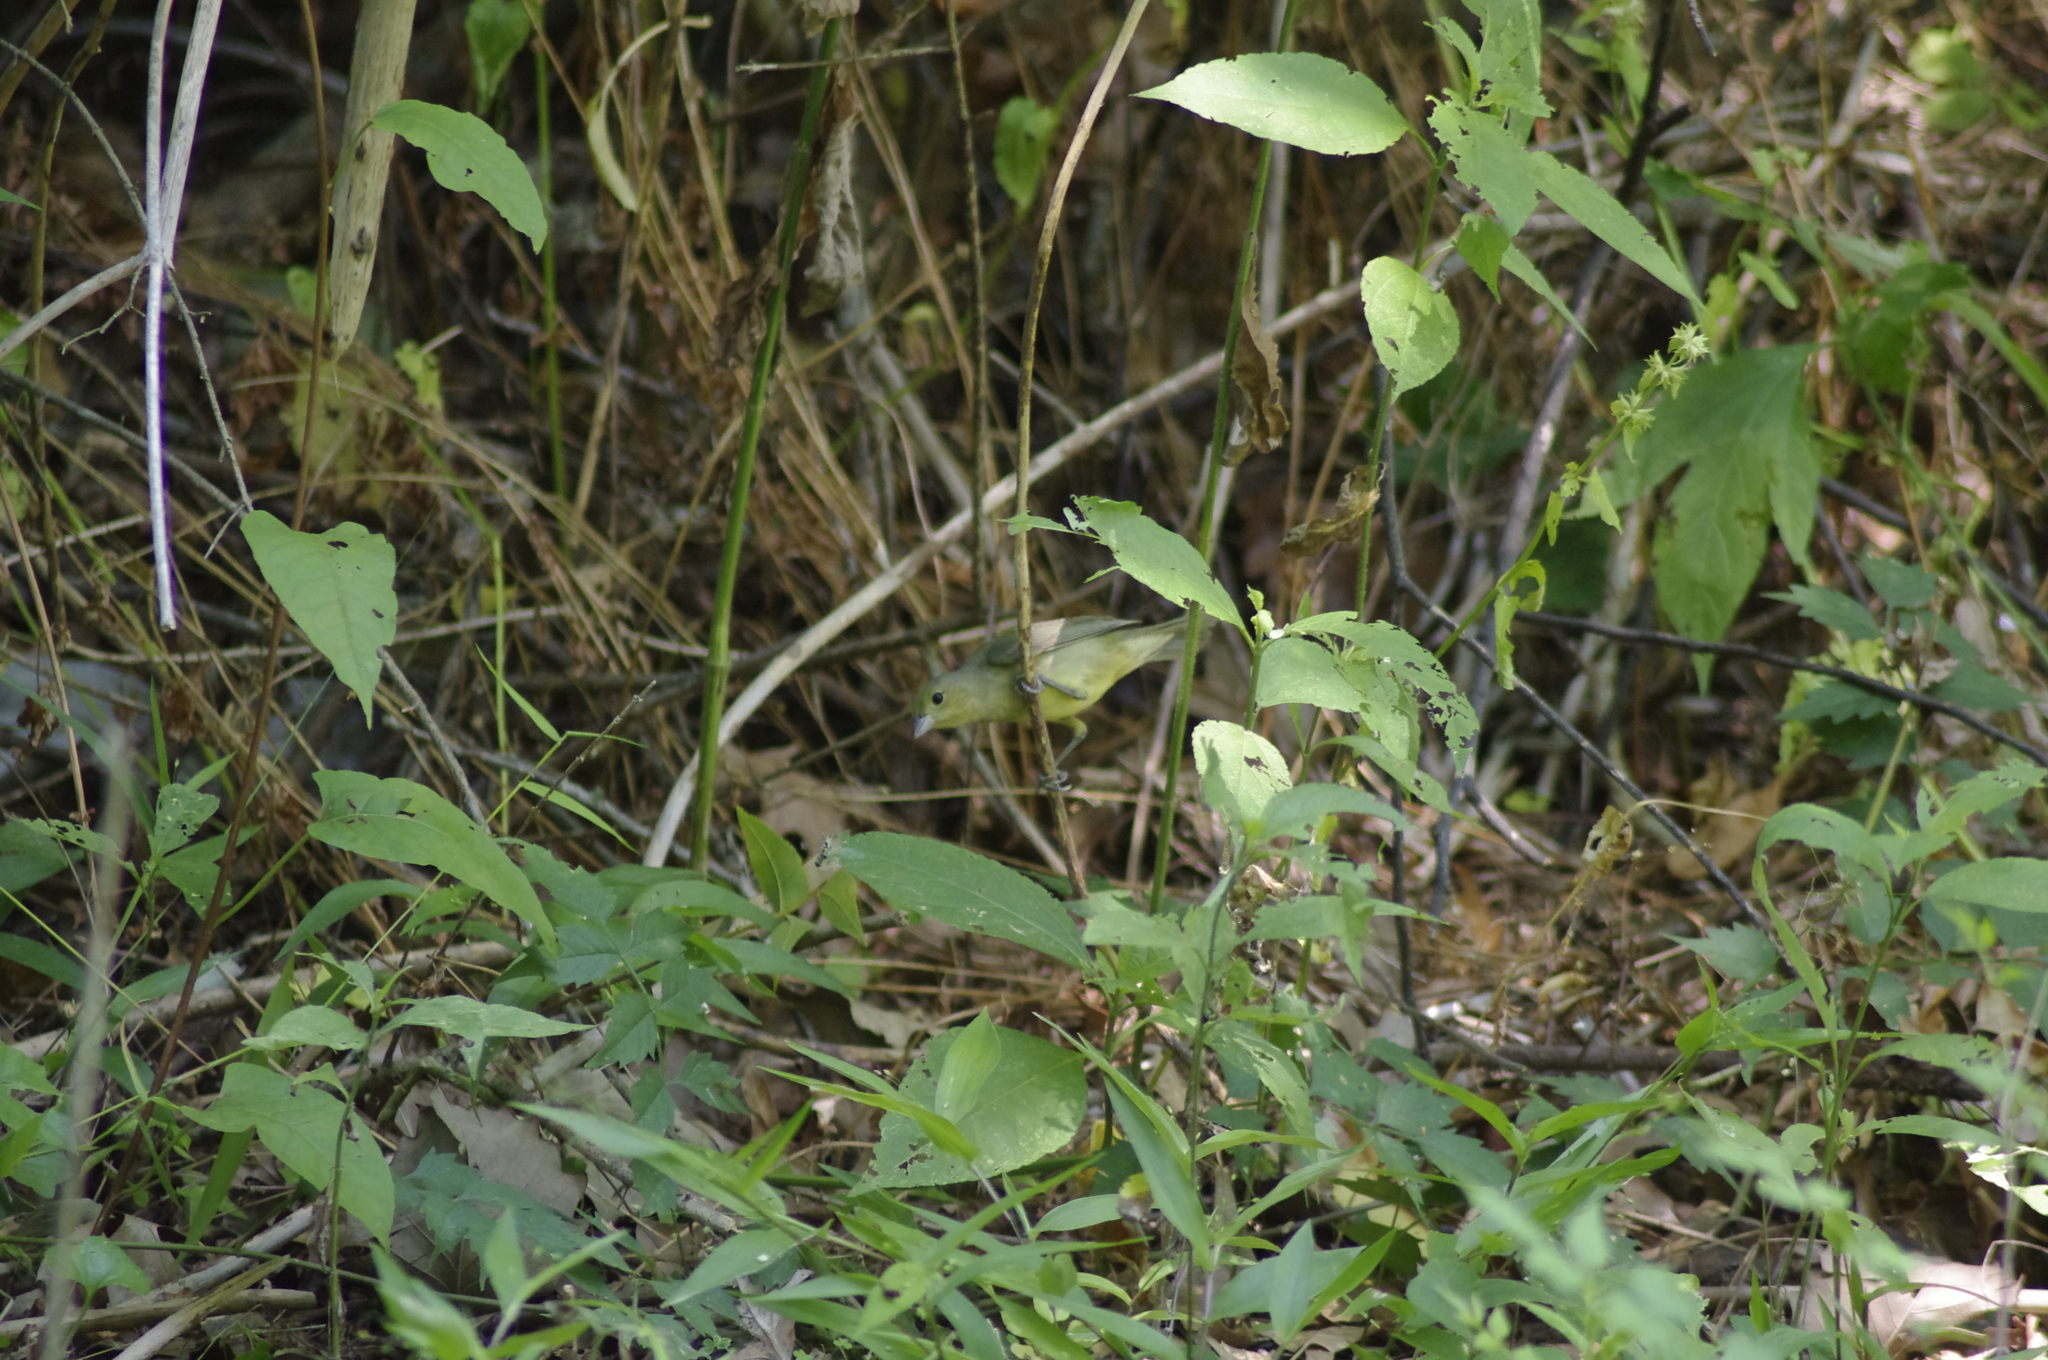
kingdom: Animalia
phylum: Chordata
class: Aves
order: Passeriformes
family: Cardinalidae
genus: Passerina
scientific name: Passerina ciris
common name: Painted bunting
